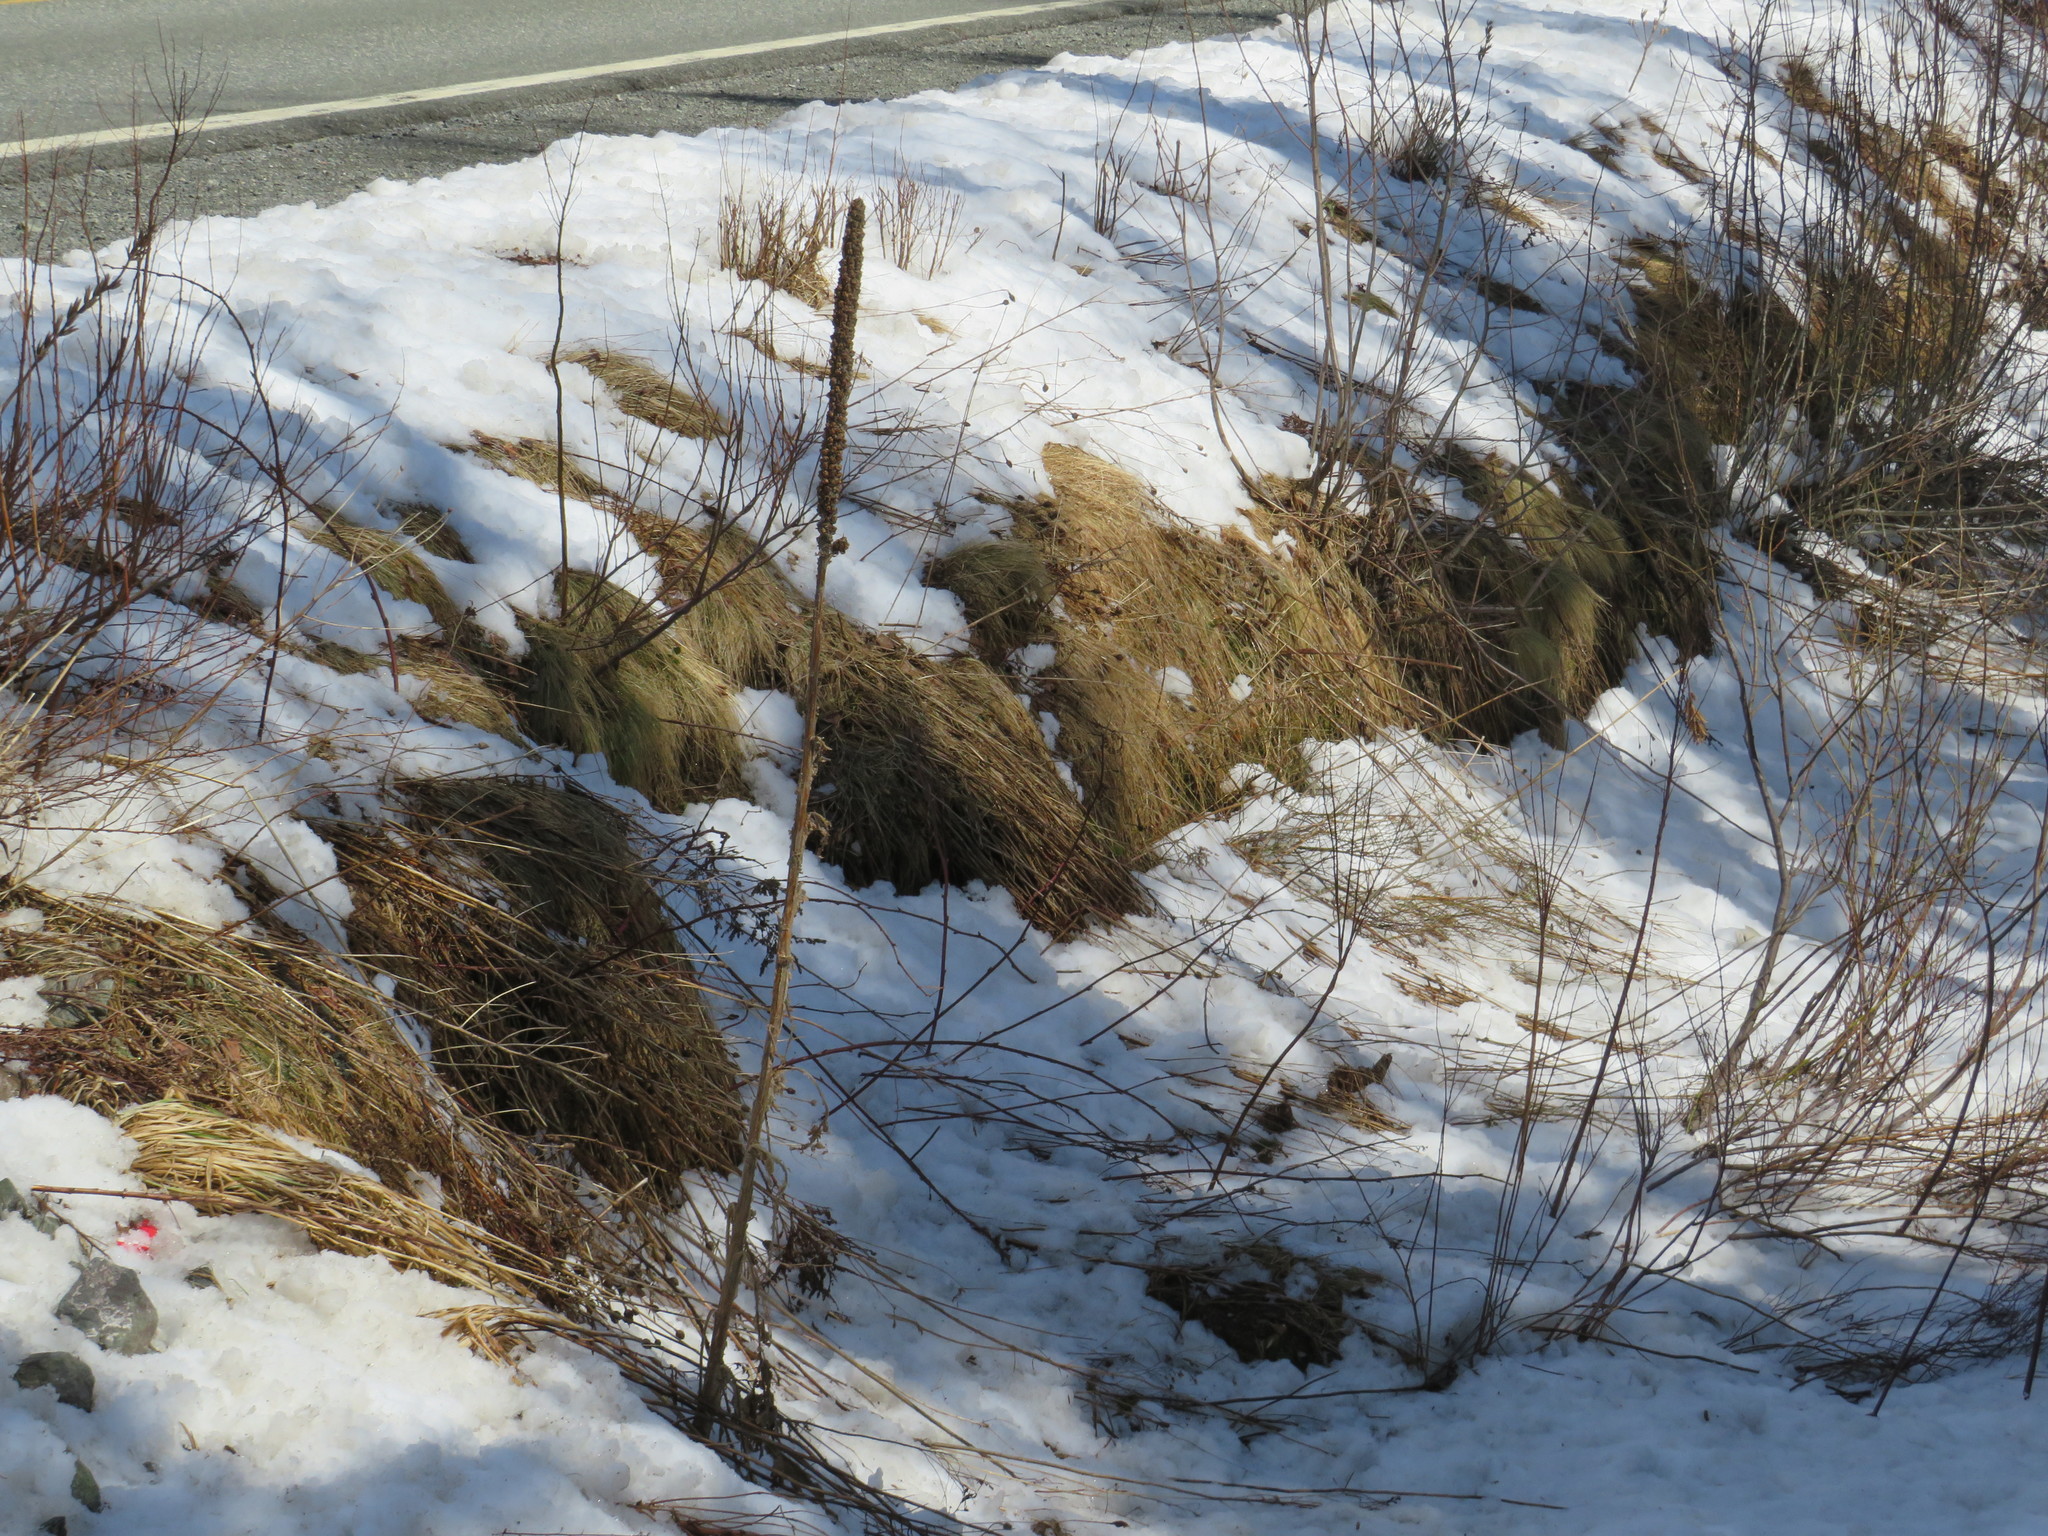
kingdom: Plantae
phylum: Tracheophyta
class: Magnoliopsida
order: Lamiales
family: Scrophulariaceae
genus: Verbascum
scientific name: Verbascum thapsus
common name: Common mullein
